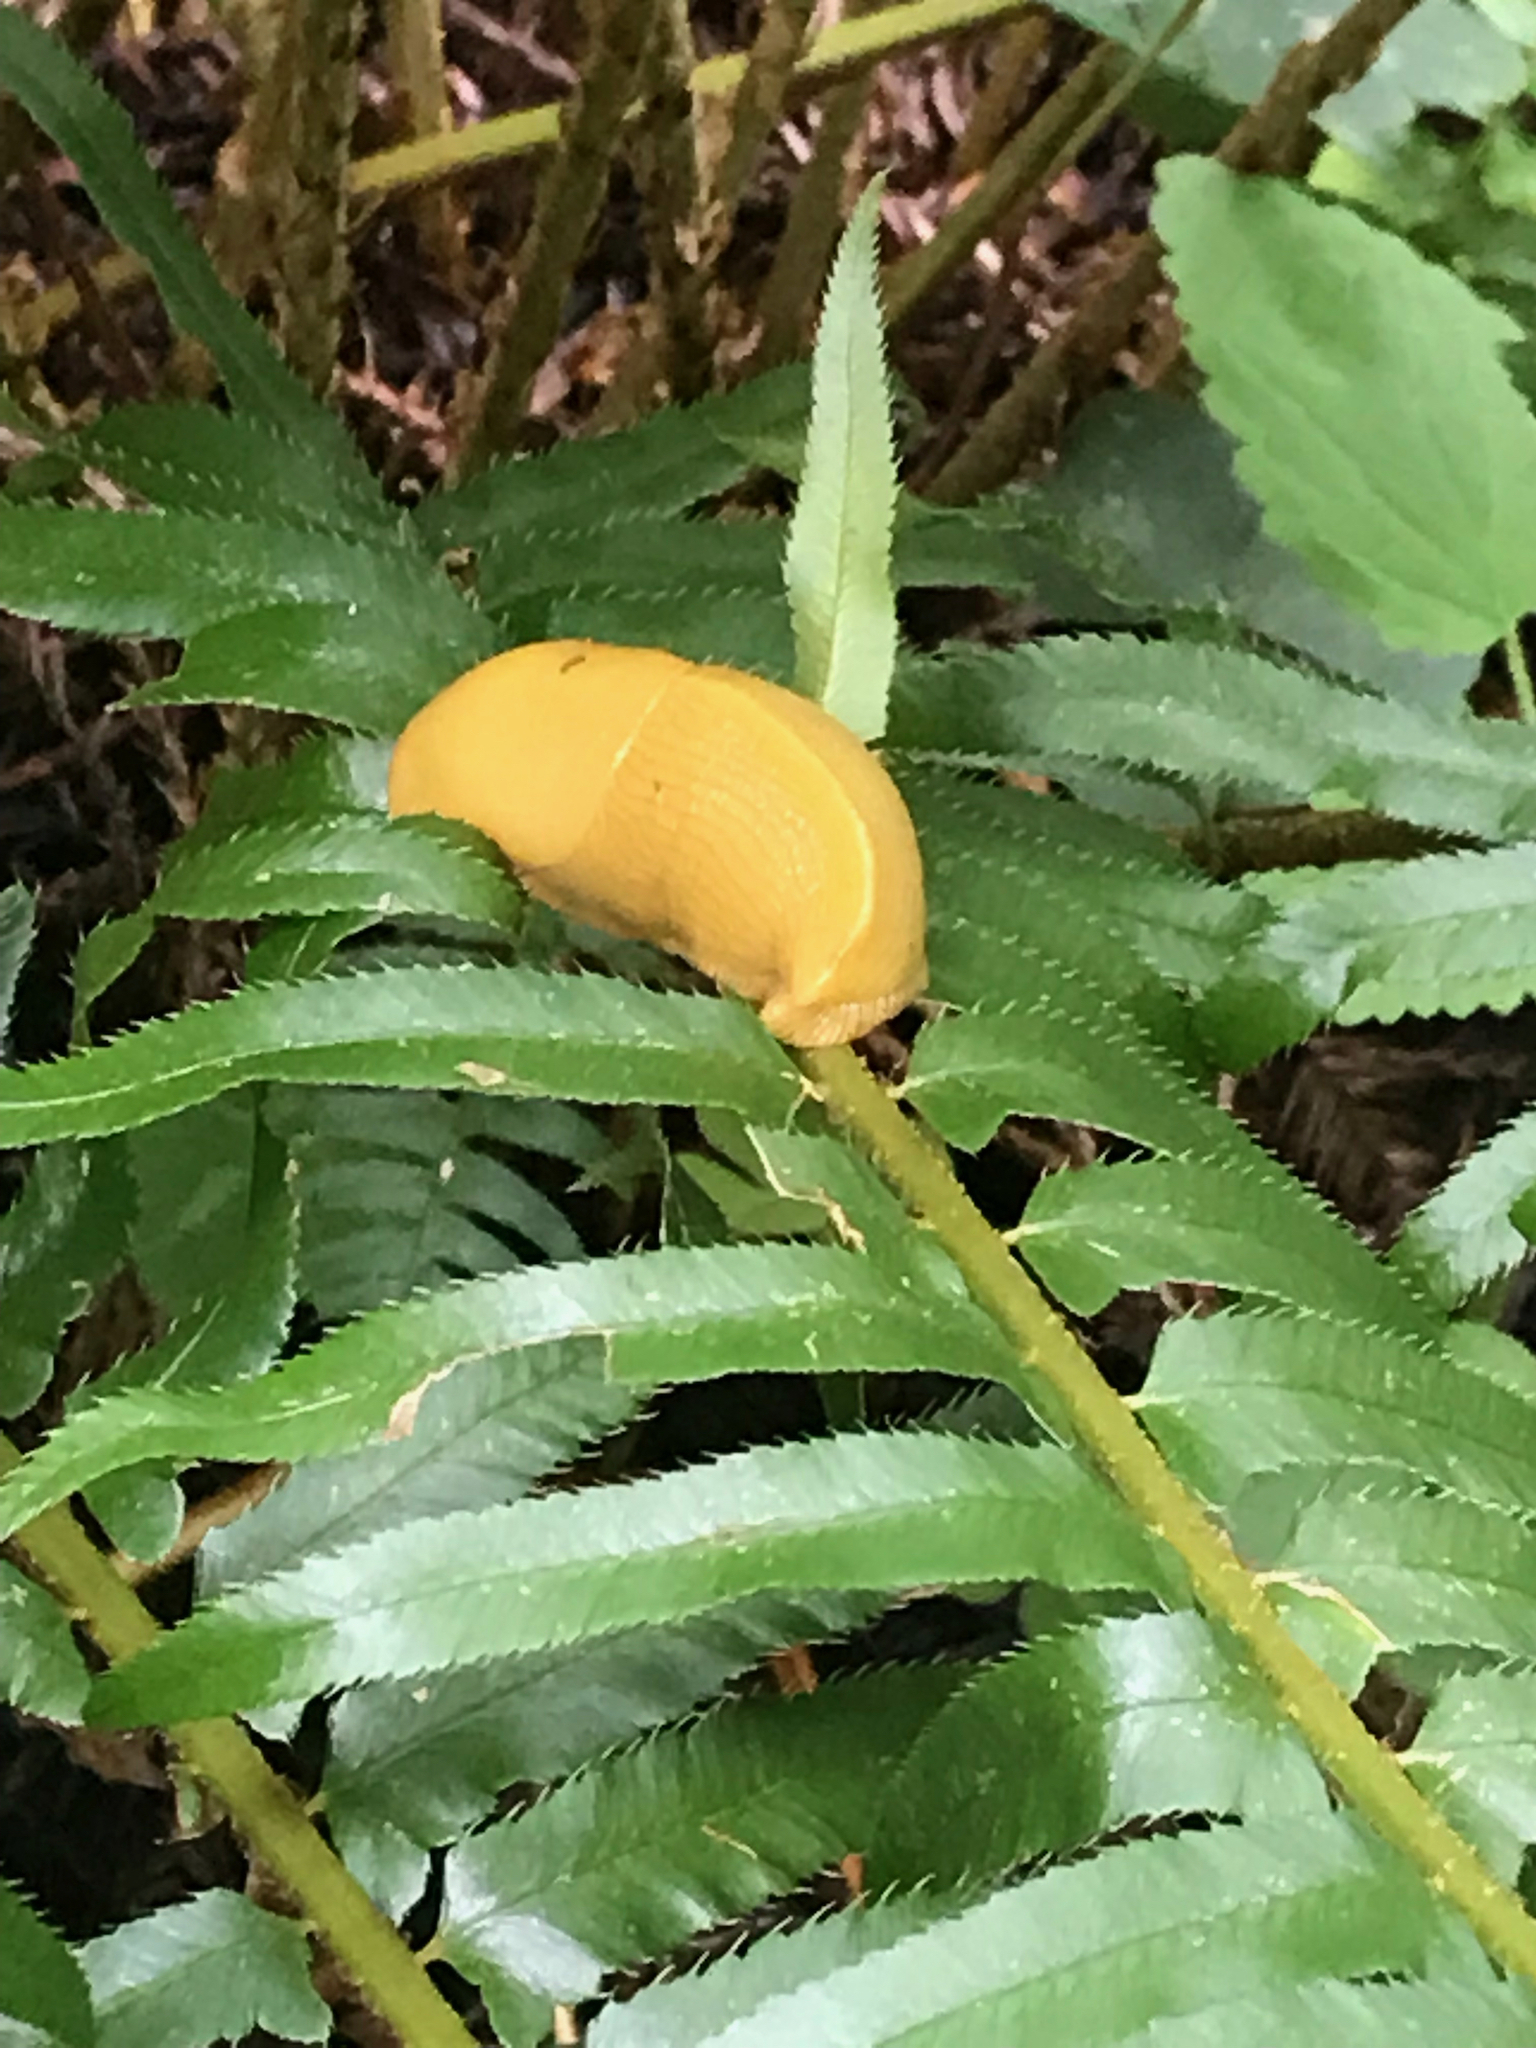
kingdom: Animalia
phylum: Mollusca
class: Gastropoda
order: Stylommatophora
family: Ariolimacidae
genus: Ariolimax
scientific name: Ariolimax columbianus
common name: Pacific banana slug
